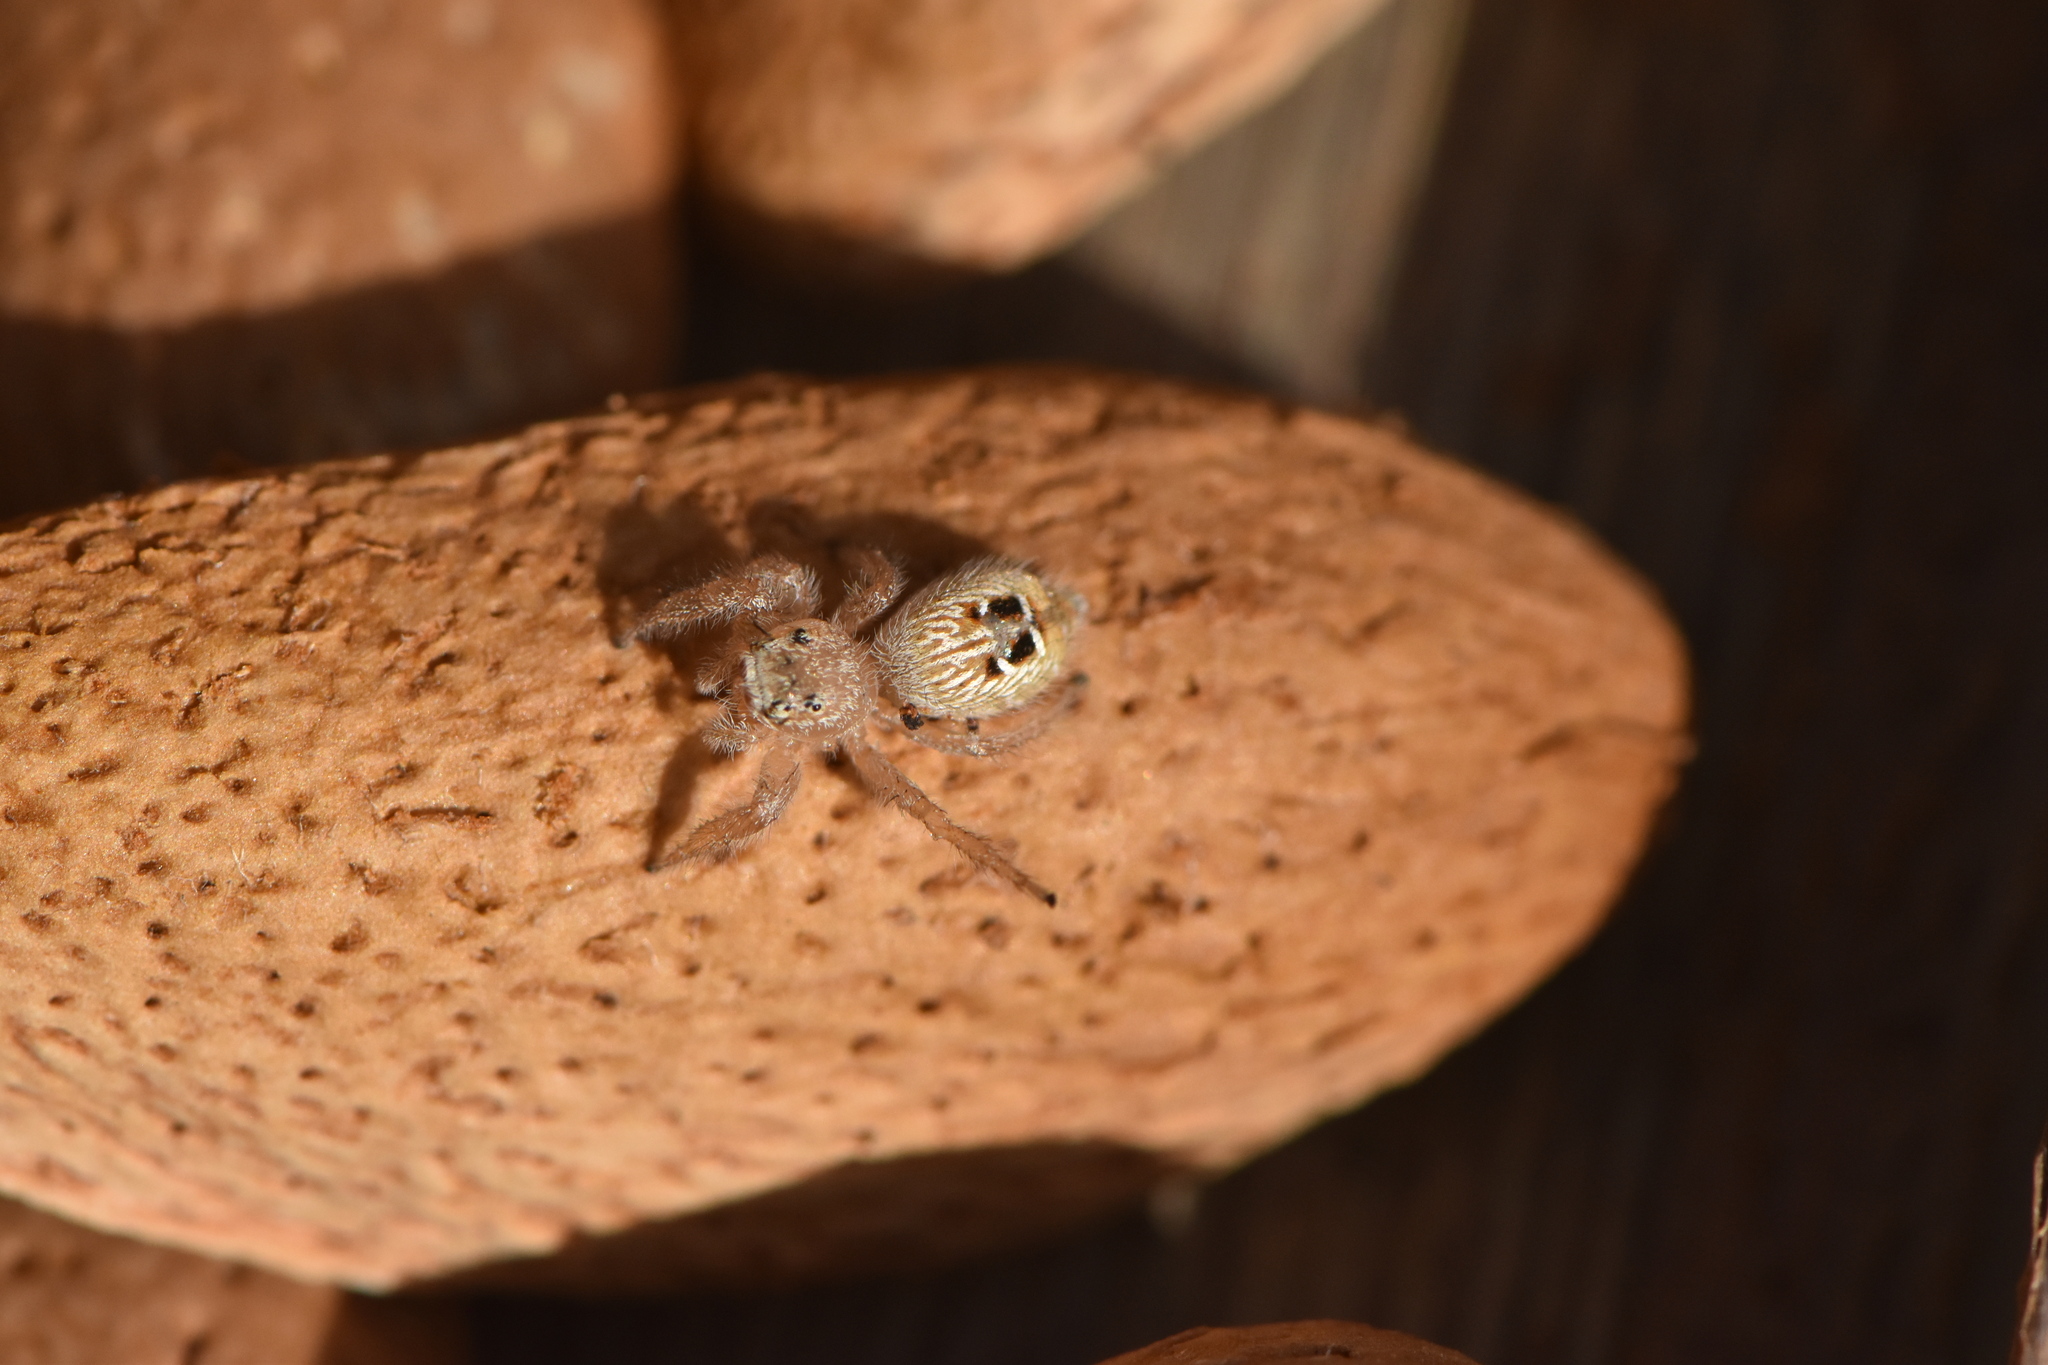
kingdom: Animalia
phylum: Arthropoda
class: Arachnida
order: Araneae
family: Salticidae
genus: Thyene
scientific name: Thyene imperialis
